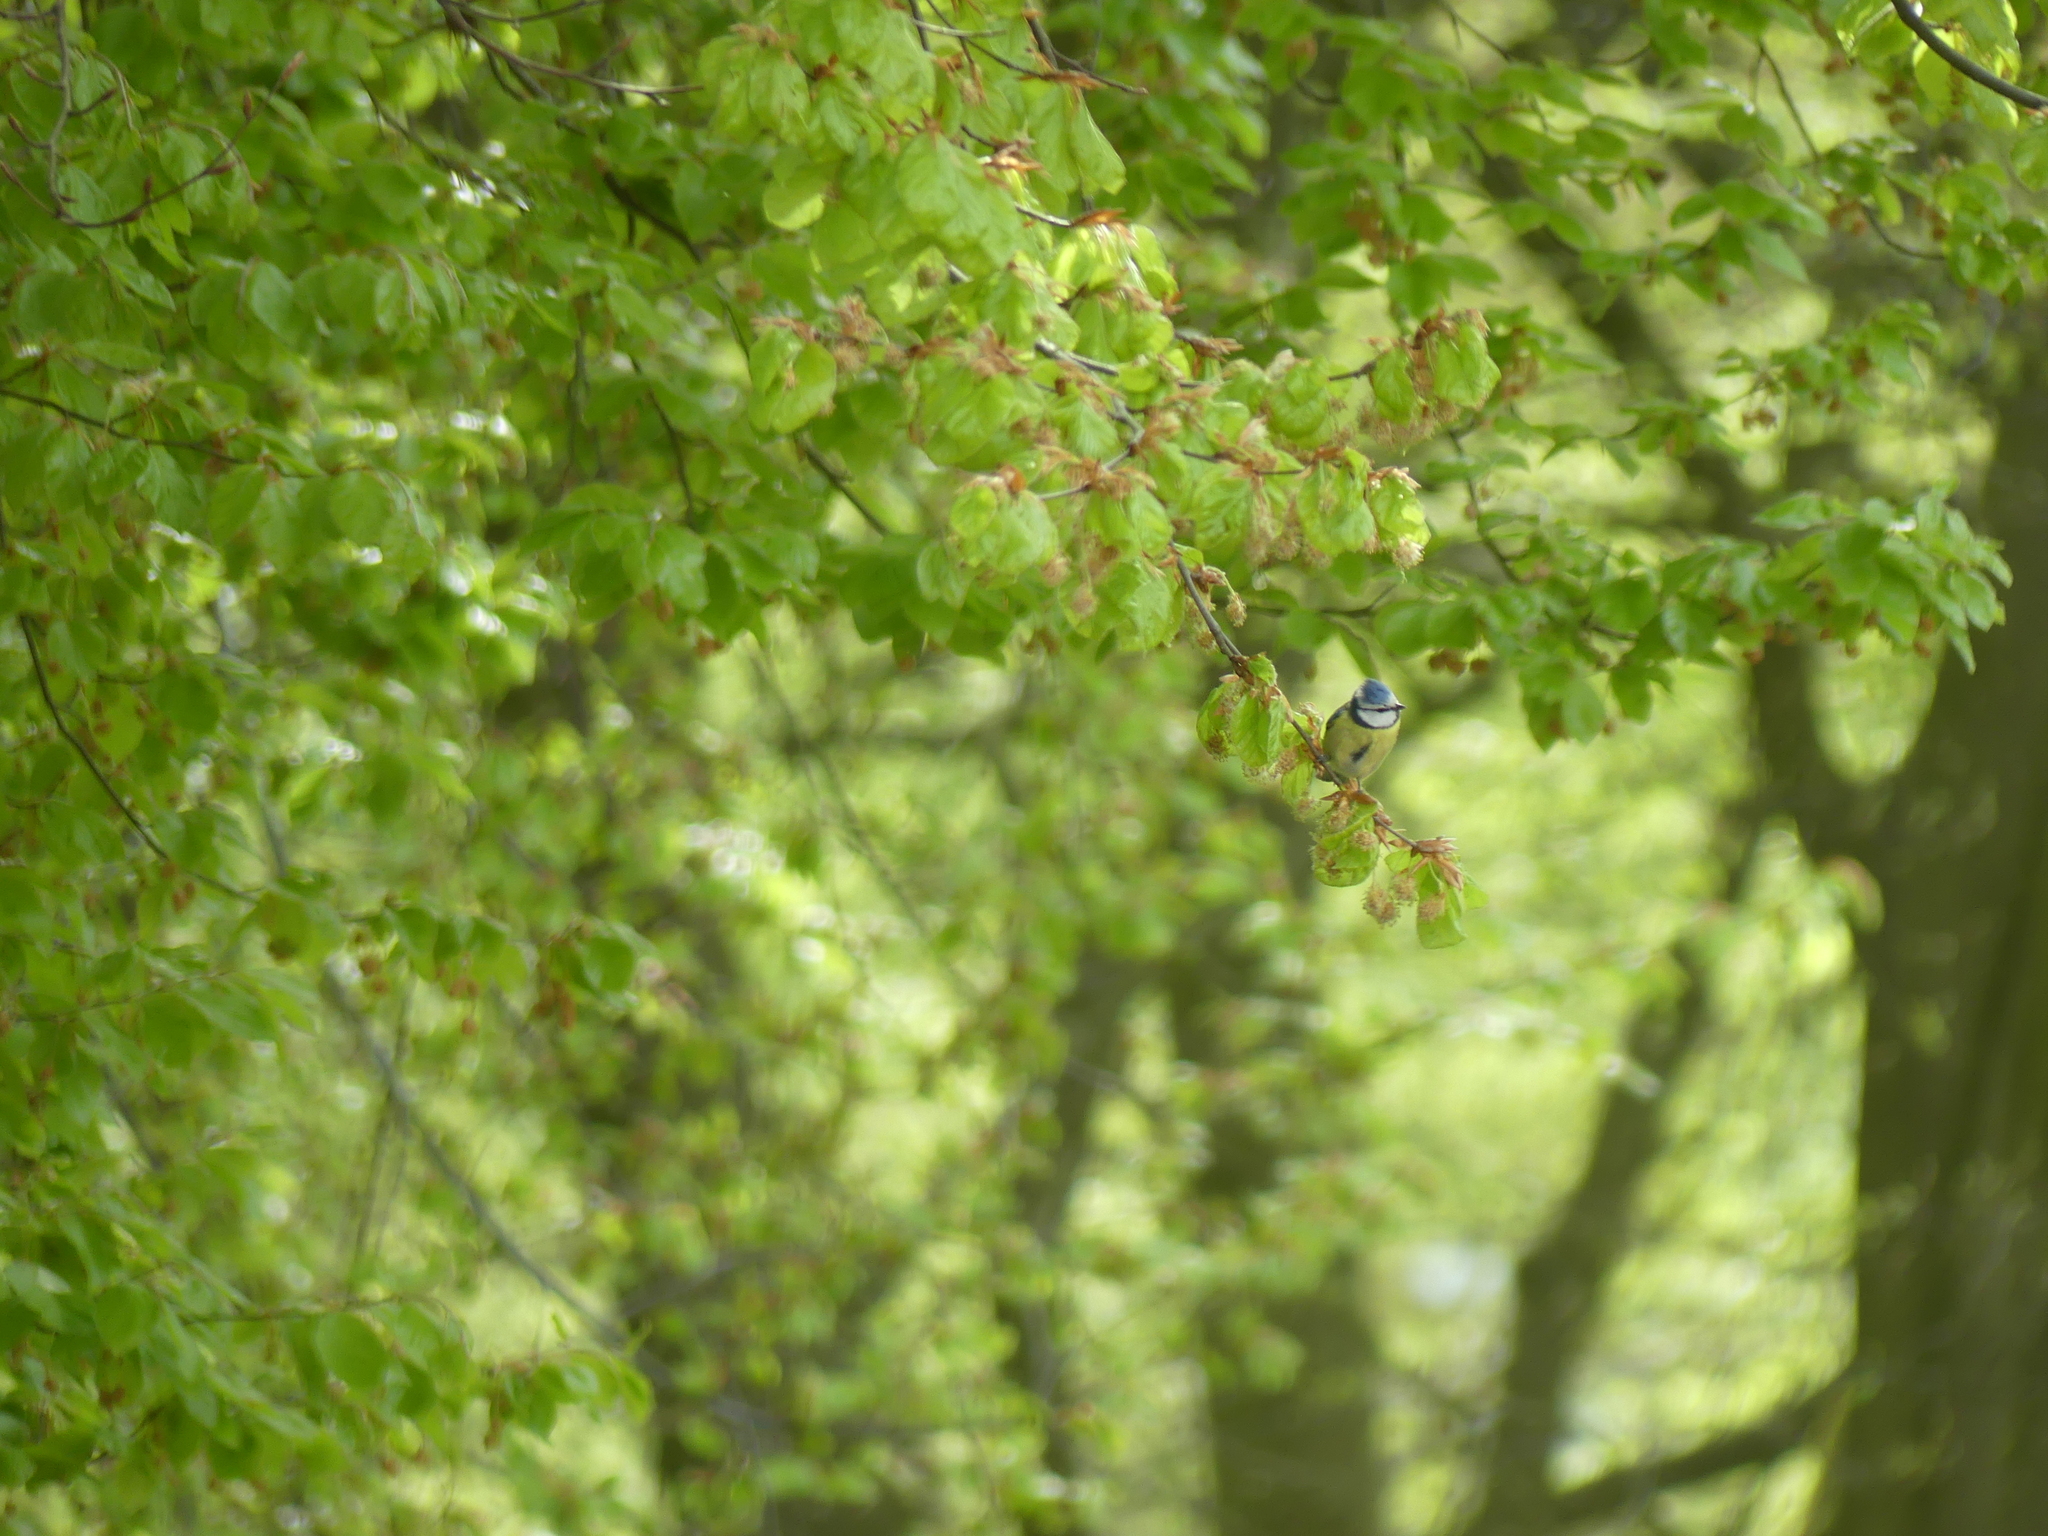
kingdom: Animalia
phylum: Chordata
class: Aves
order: Passeriformes
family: Paridae
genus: Cyanistes
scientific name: Cyanistes caeruleus
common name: Eurasian blue tit
